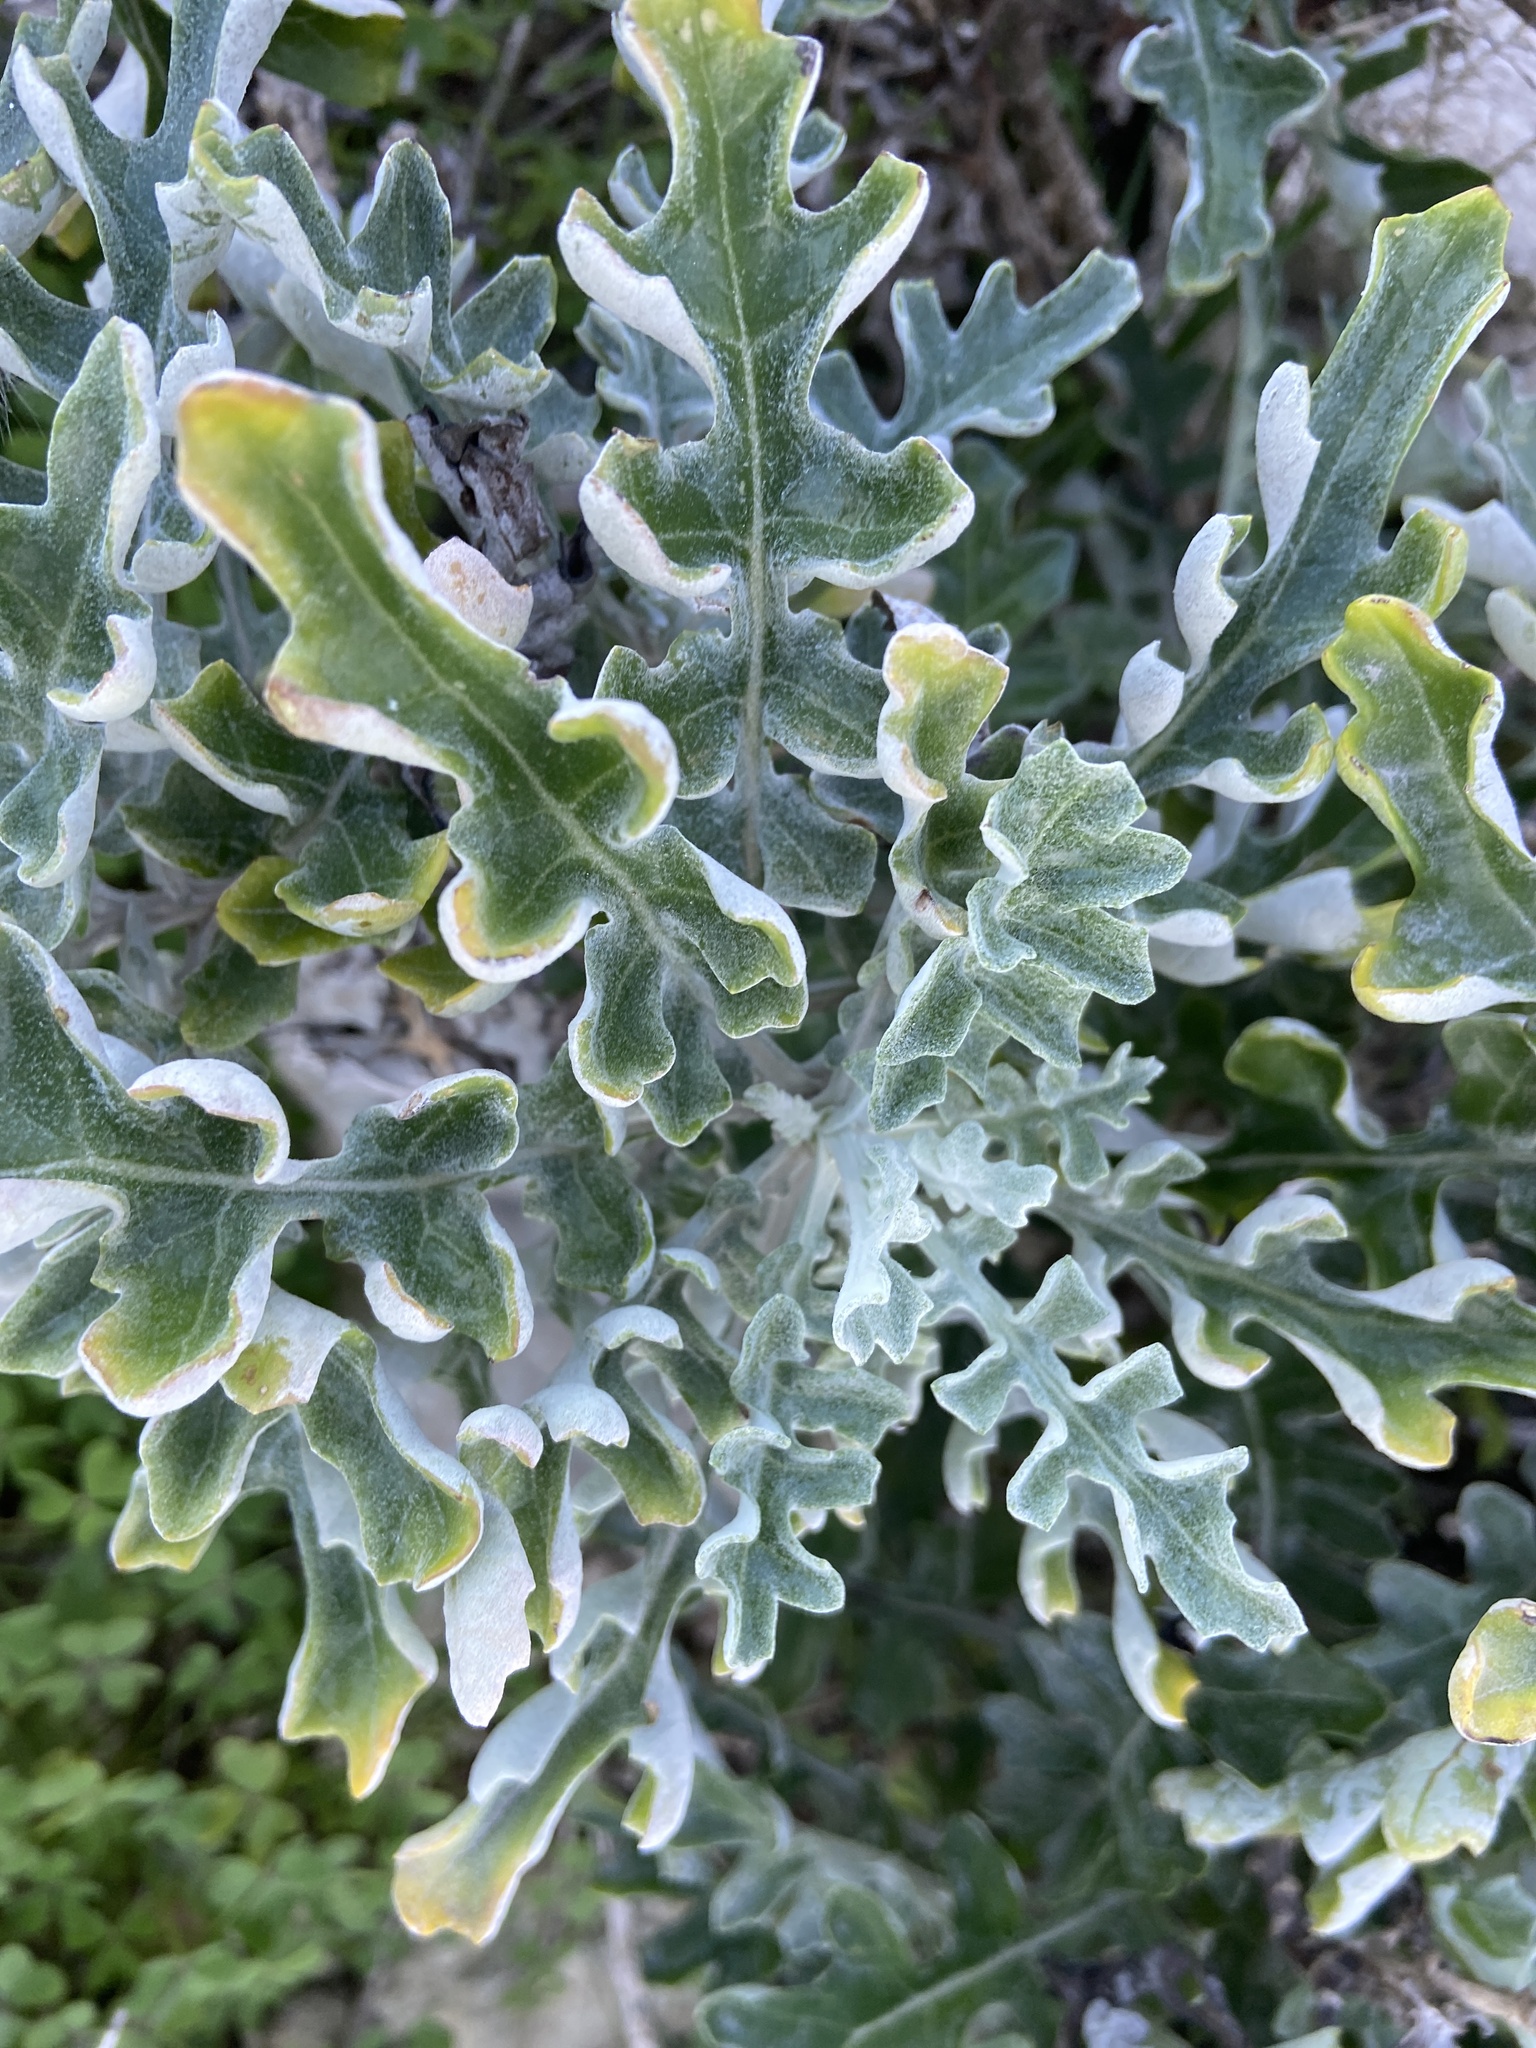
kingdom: Plantae
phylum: Tracheophyta
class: Magnoliopsida
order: Asterales
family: Asteraceae
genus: Jacobaea
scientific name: Jacobaea maritima
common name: Silver ragwort
